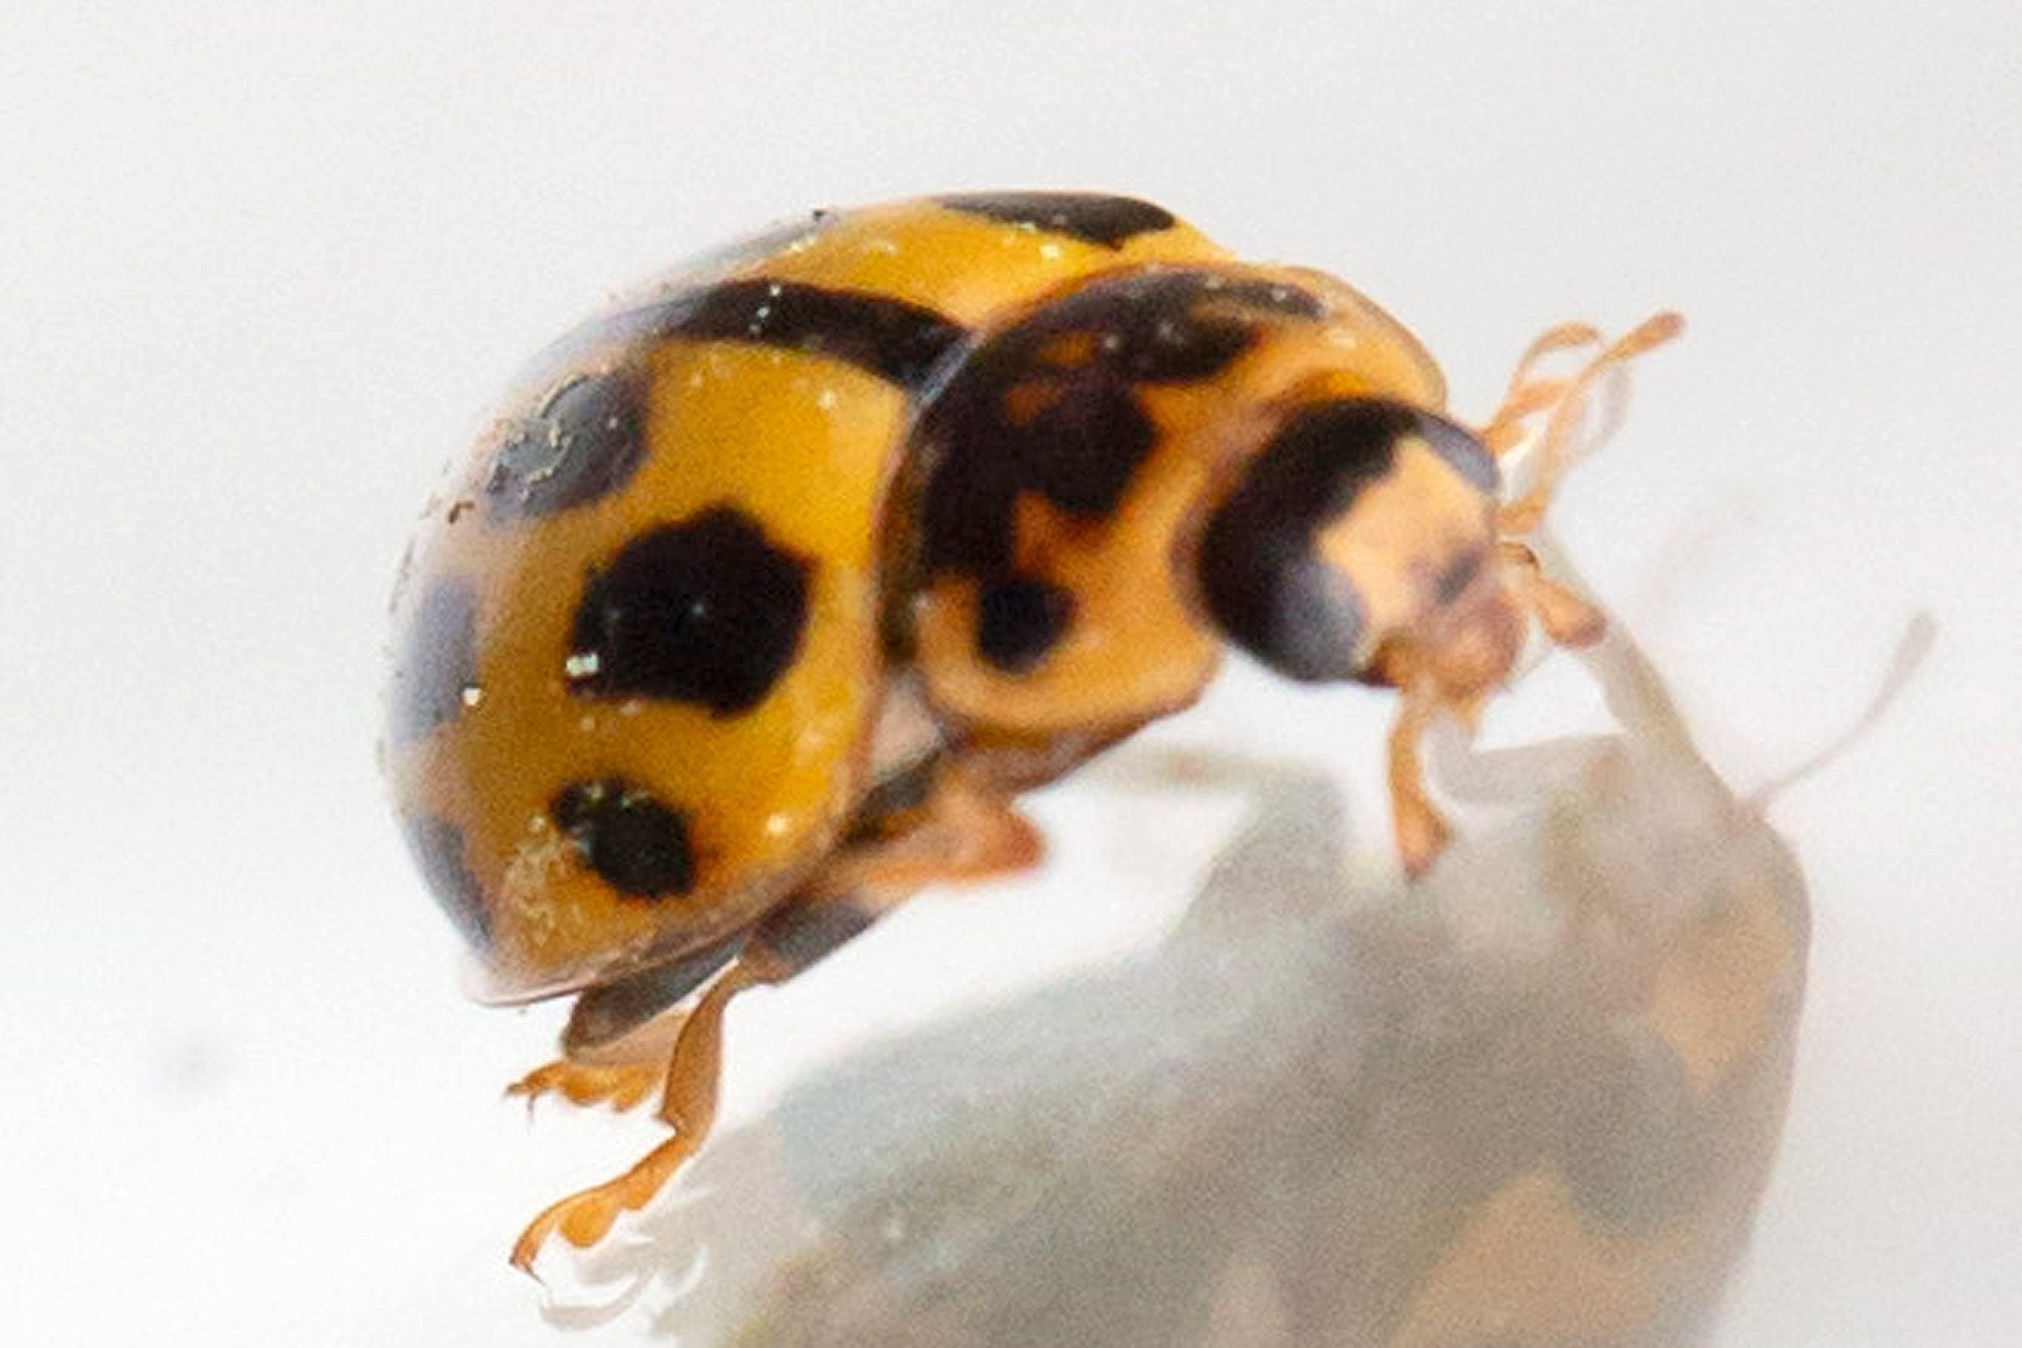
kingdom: Animalia
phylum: Arthropoda
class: Insecta
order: Coleoptera
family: Coccinellidae
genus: Propylaea
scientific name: Propylaea quatuordecimpunctata
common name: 14-spotted ladybird beetle
